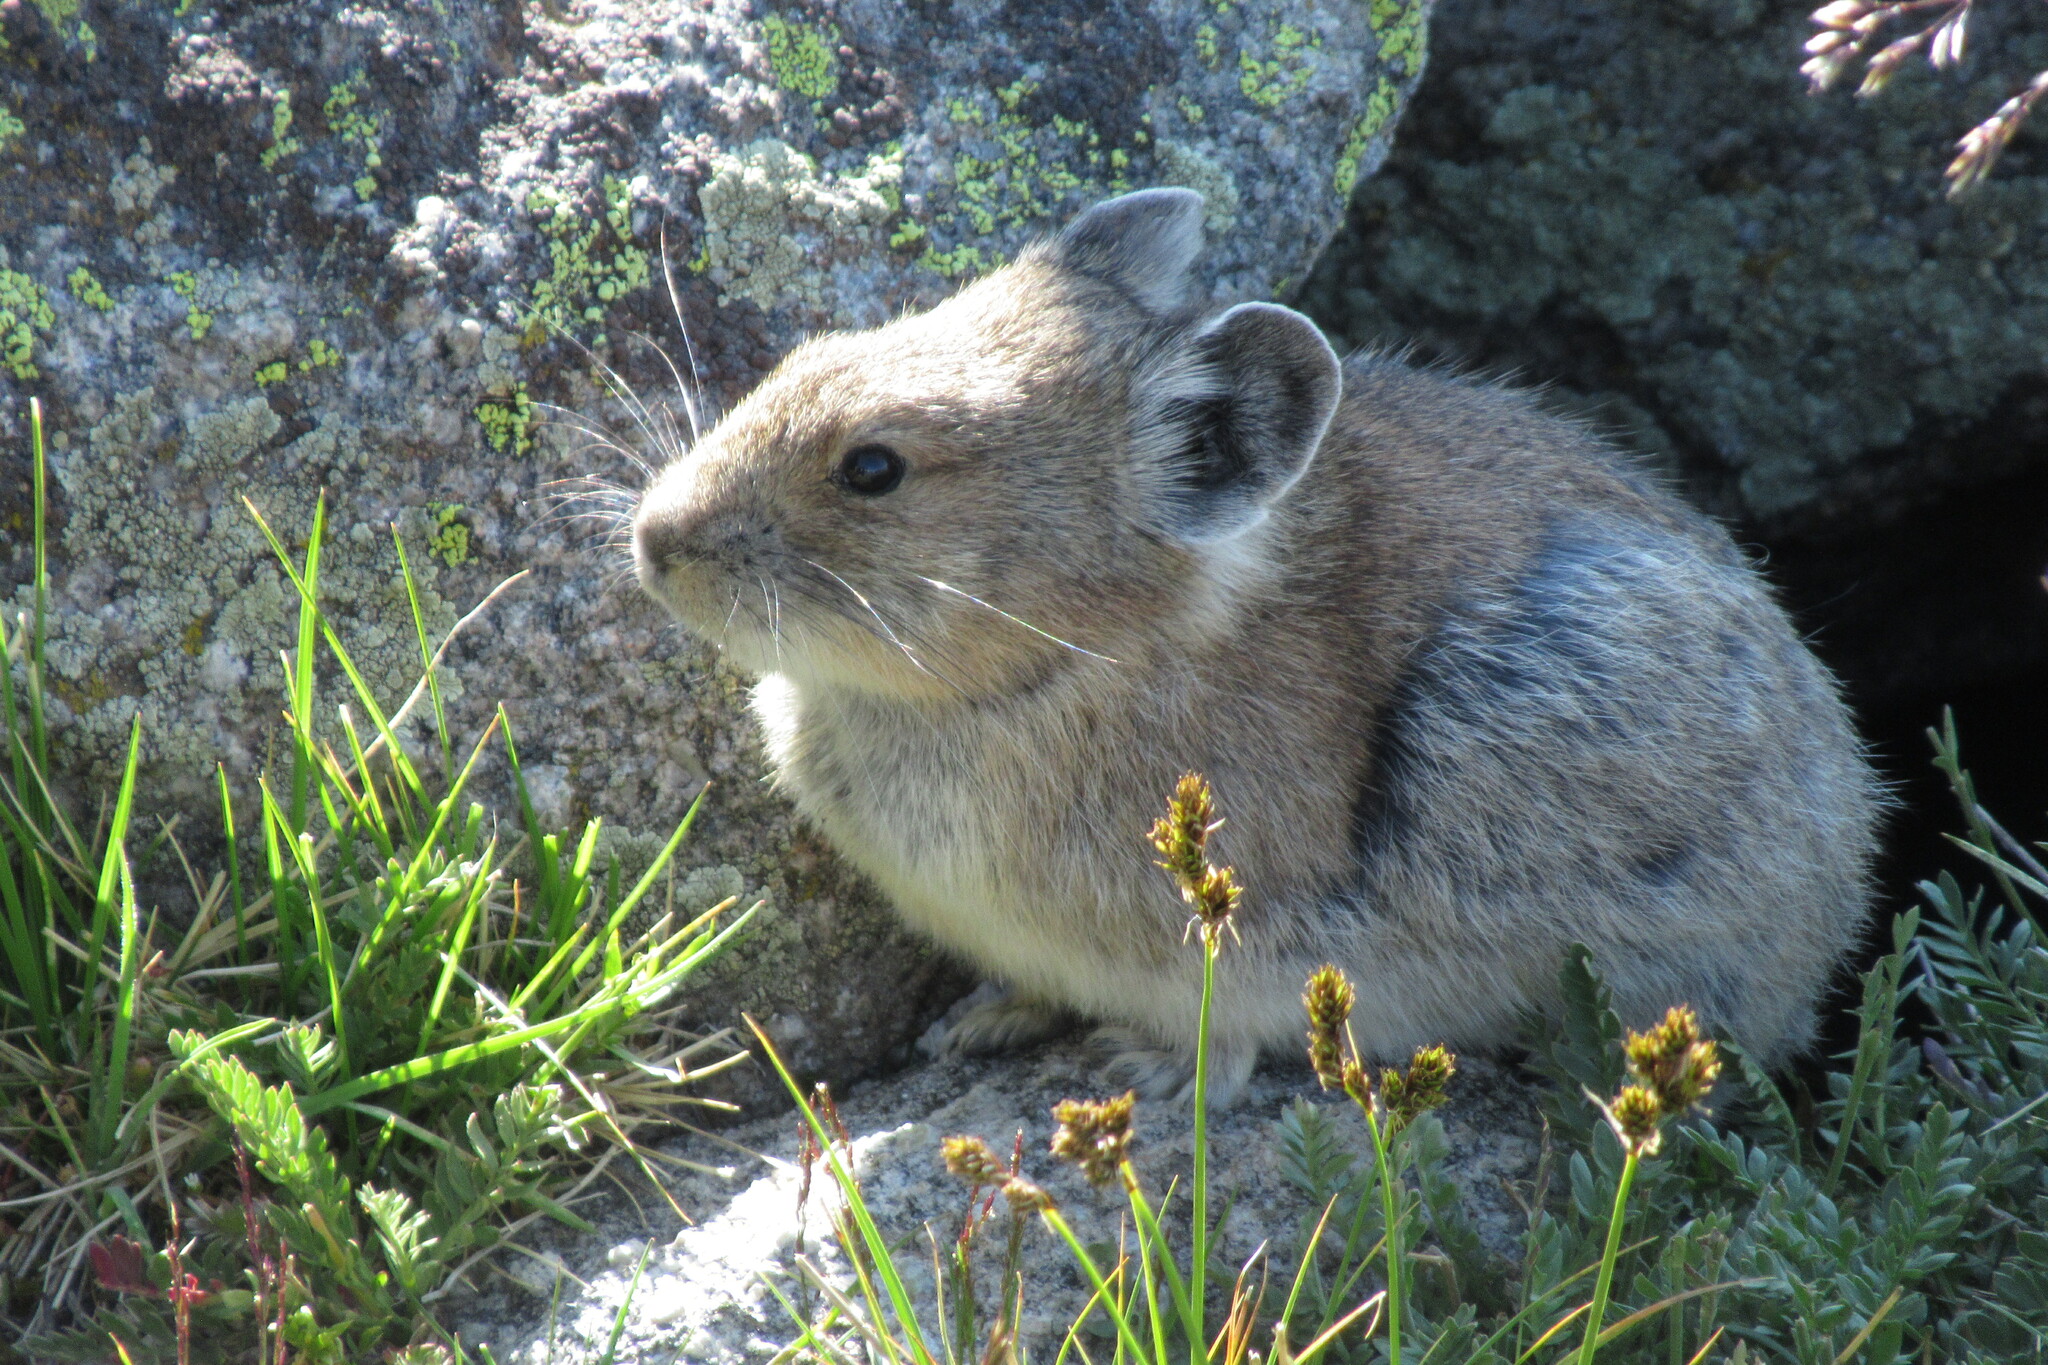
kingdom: Animalia
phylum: Chordata
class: Mammalia
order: Lagomorpha
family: Ochotonidae
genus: Ochotona
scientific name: Ochotona princeps
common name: American pika
